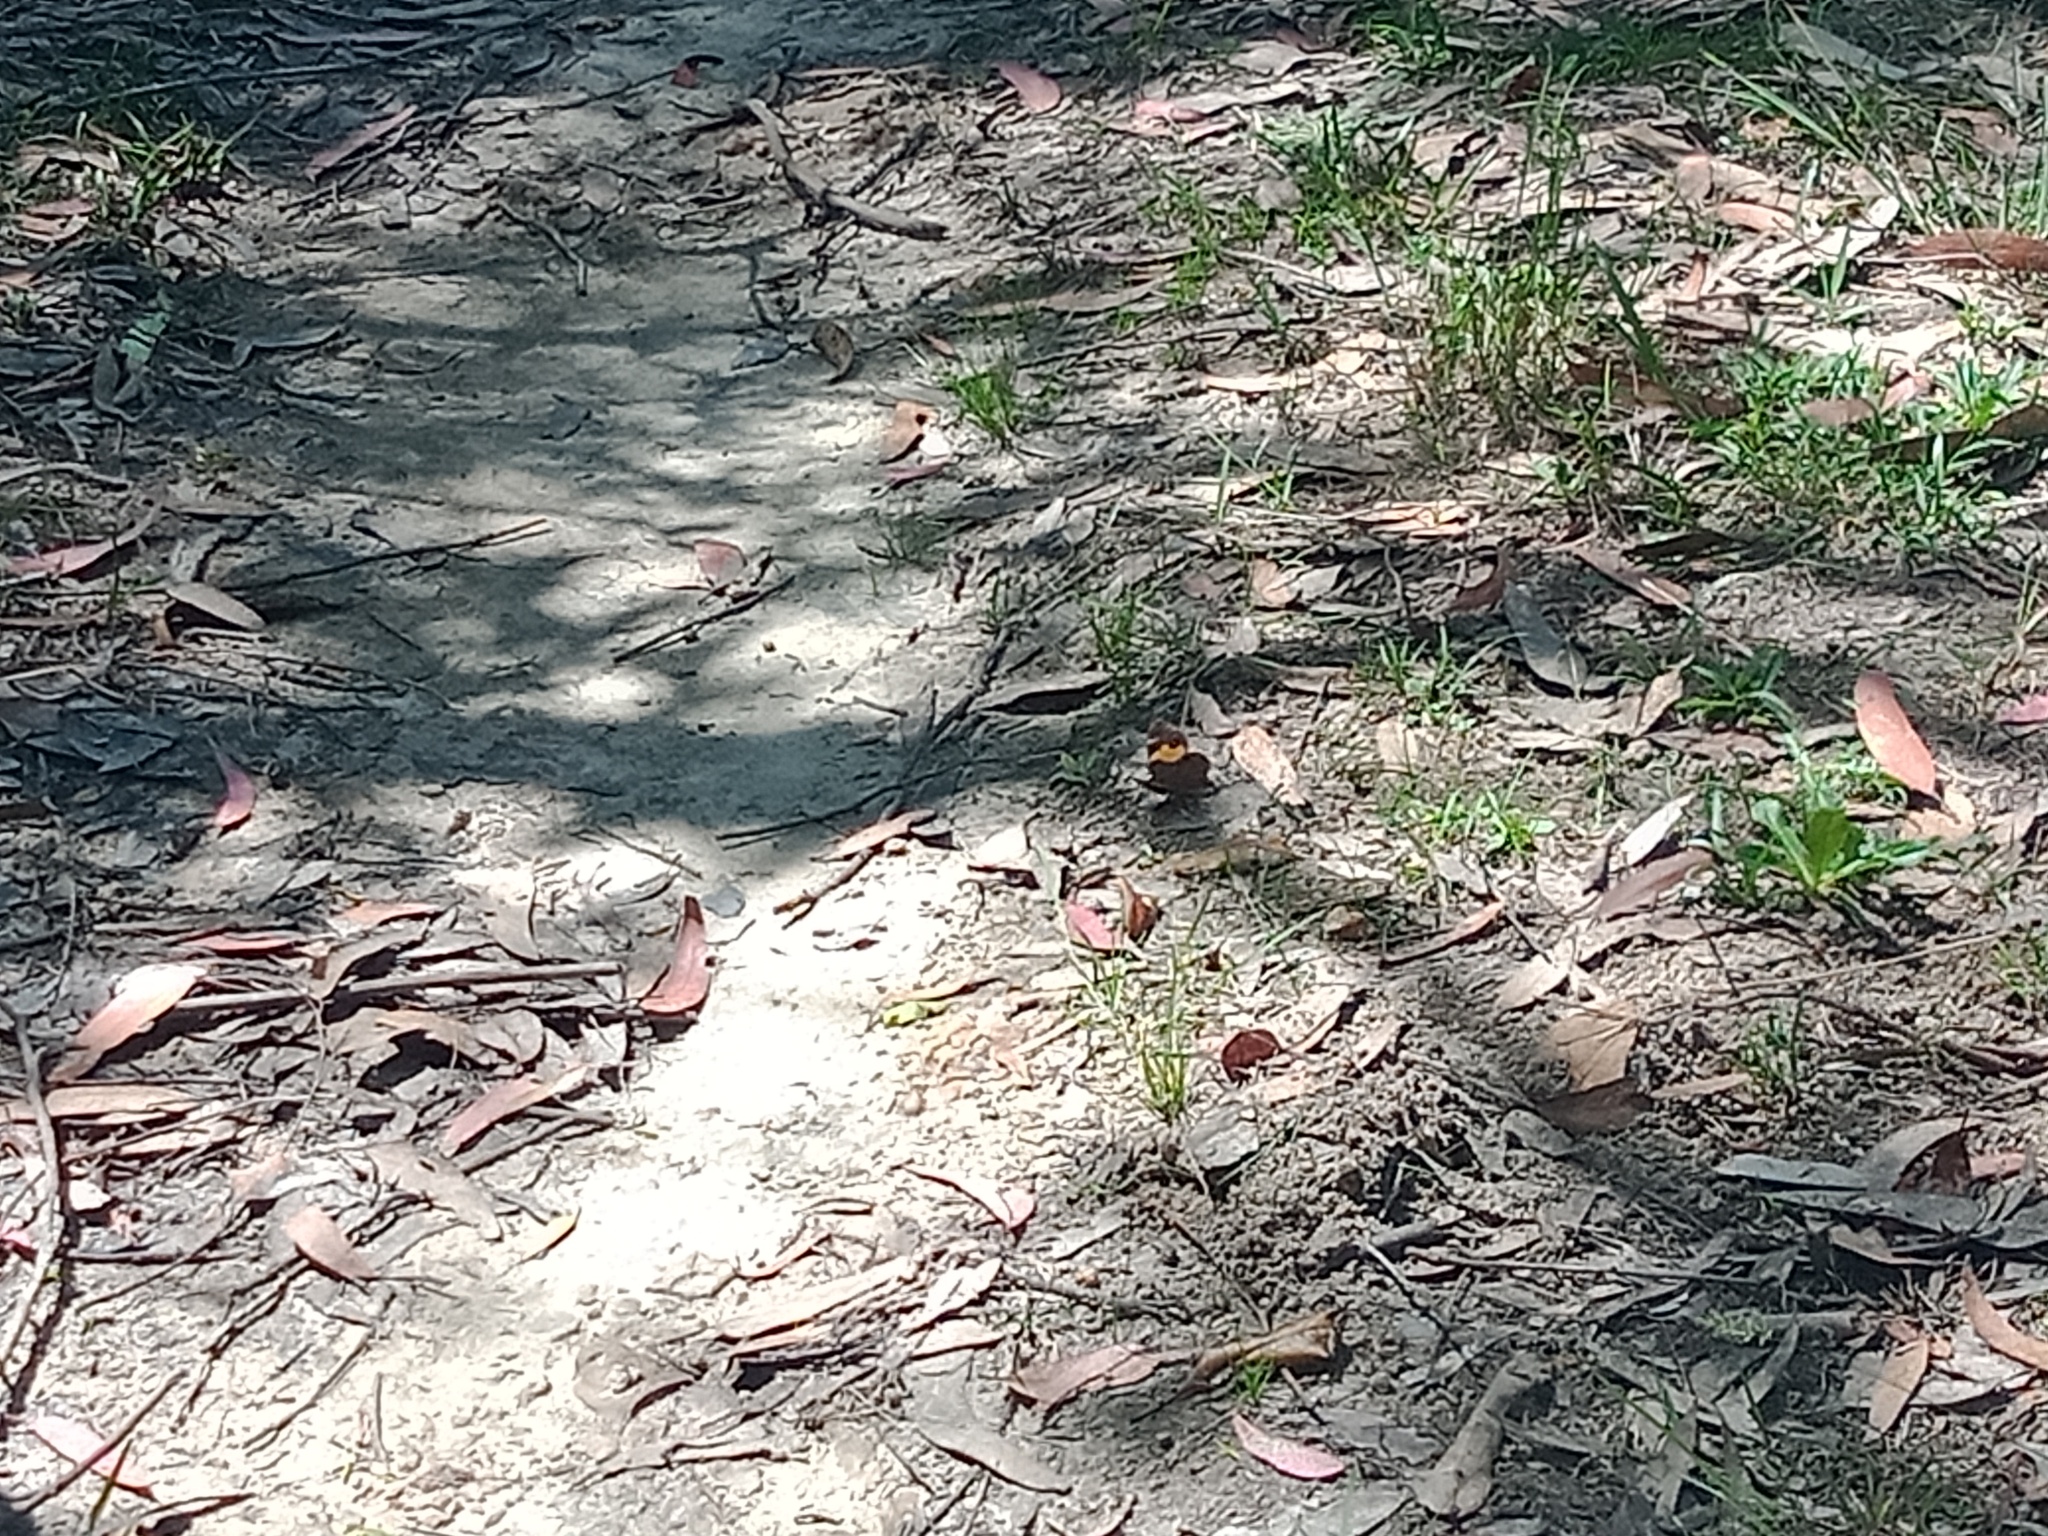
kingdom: Animalia
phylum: Arthropoda
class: Insecta
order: Lepidoptera
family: Nymphalidae
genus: Tisiphone
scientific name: Tisiphone abeona
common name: Swordgrass brown
